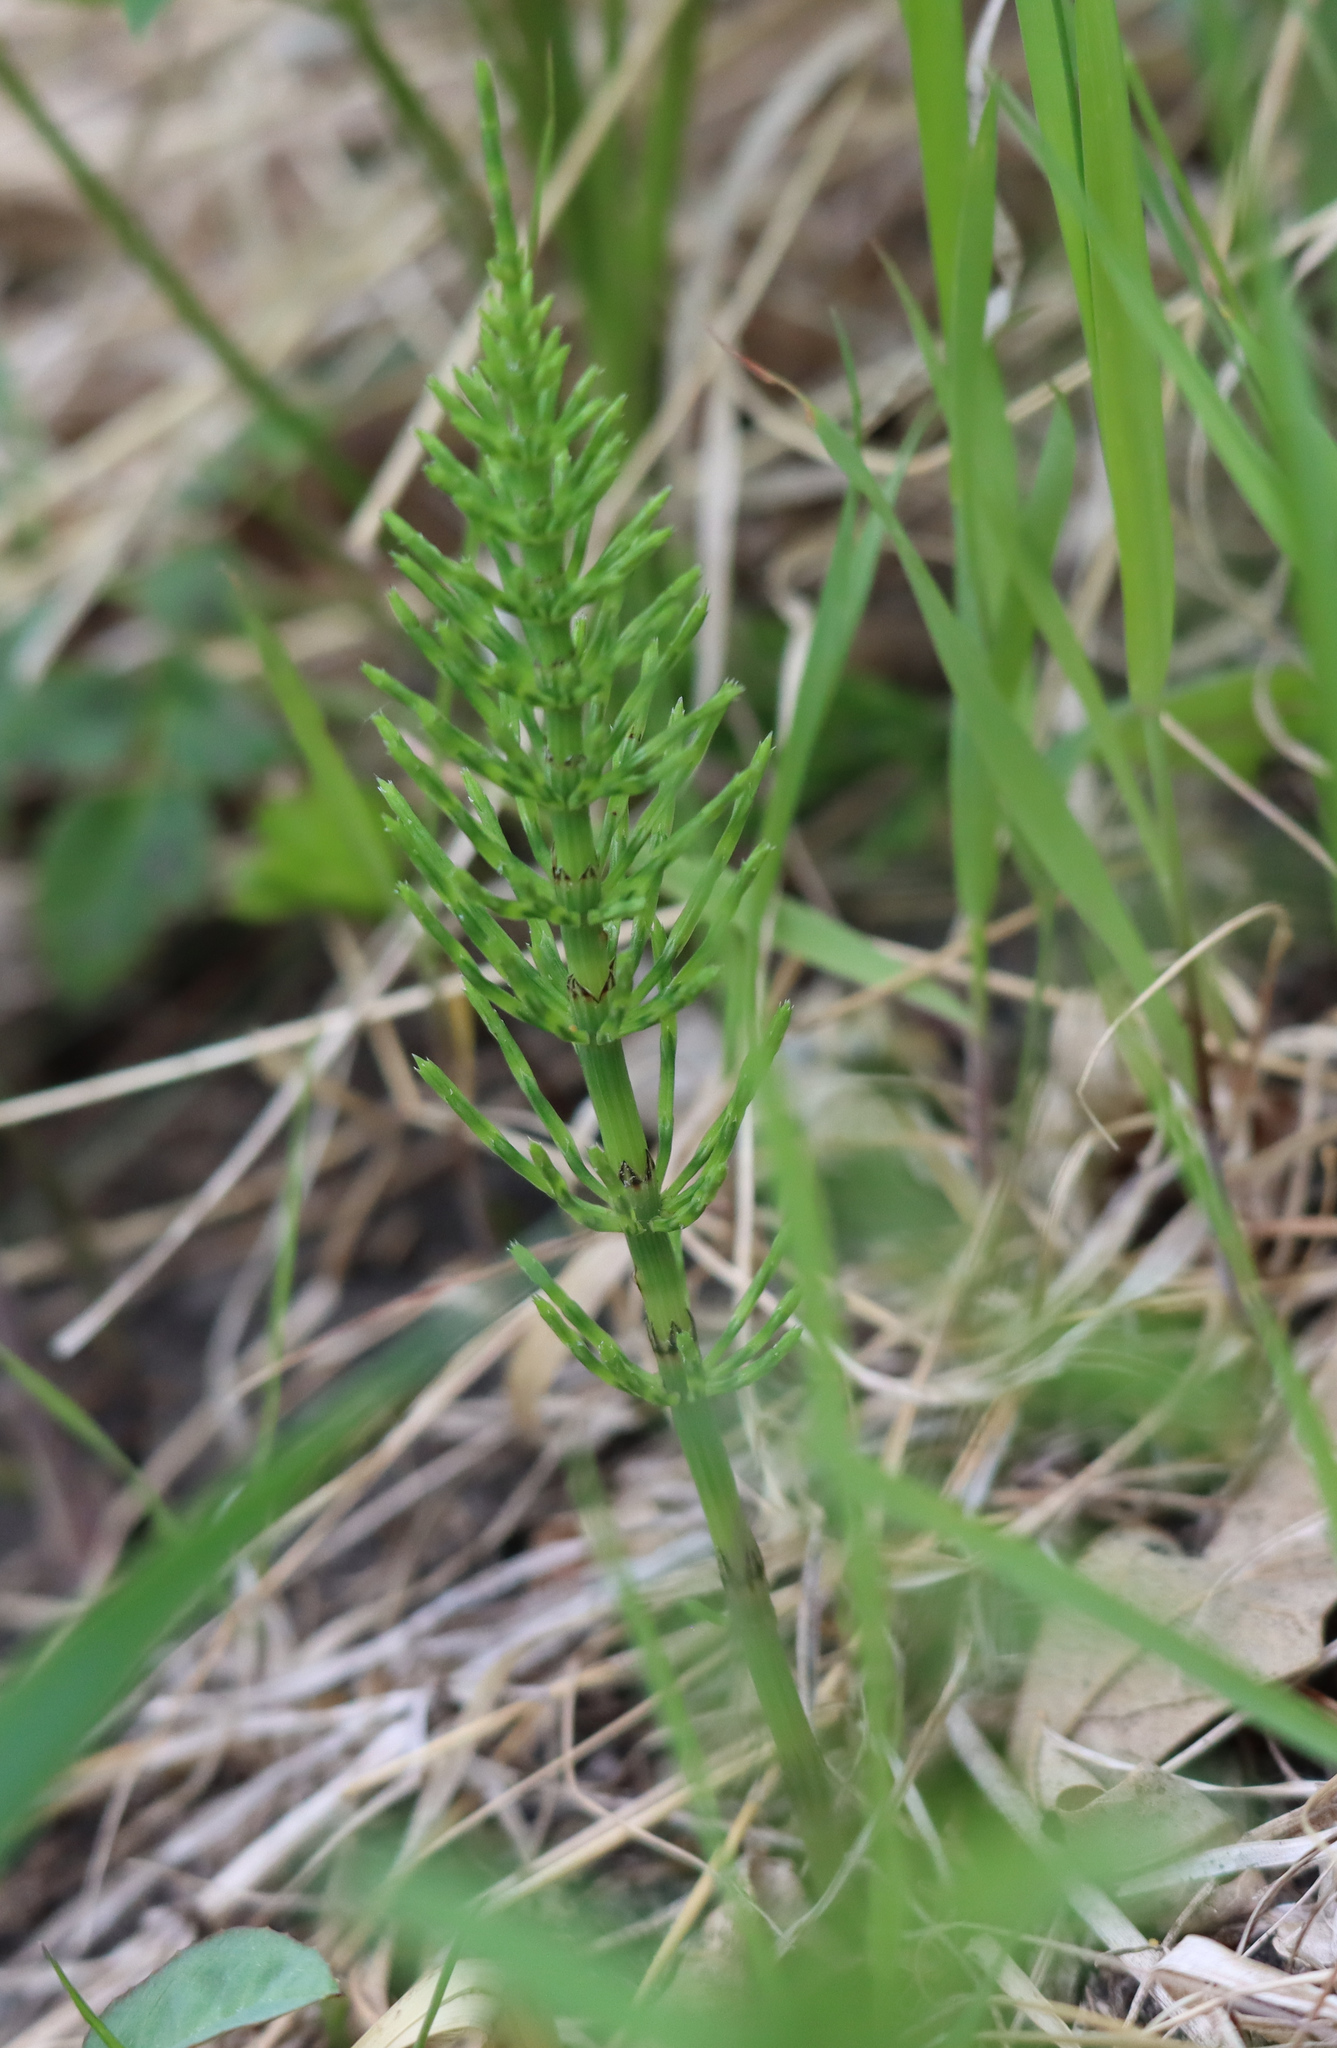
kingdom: Plantae
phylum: Tracheophyta
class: Polypodiopsida
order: Equisetales
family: Equisetaceae
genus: Equisetum
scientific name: Equisetum arvense
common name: Field horsetail
